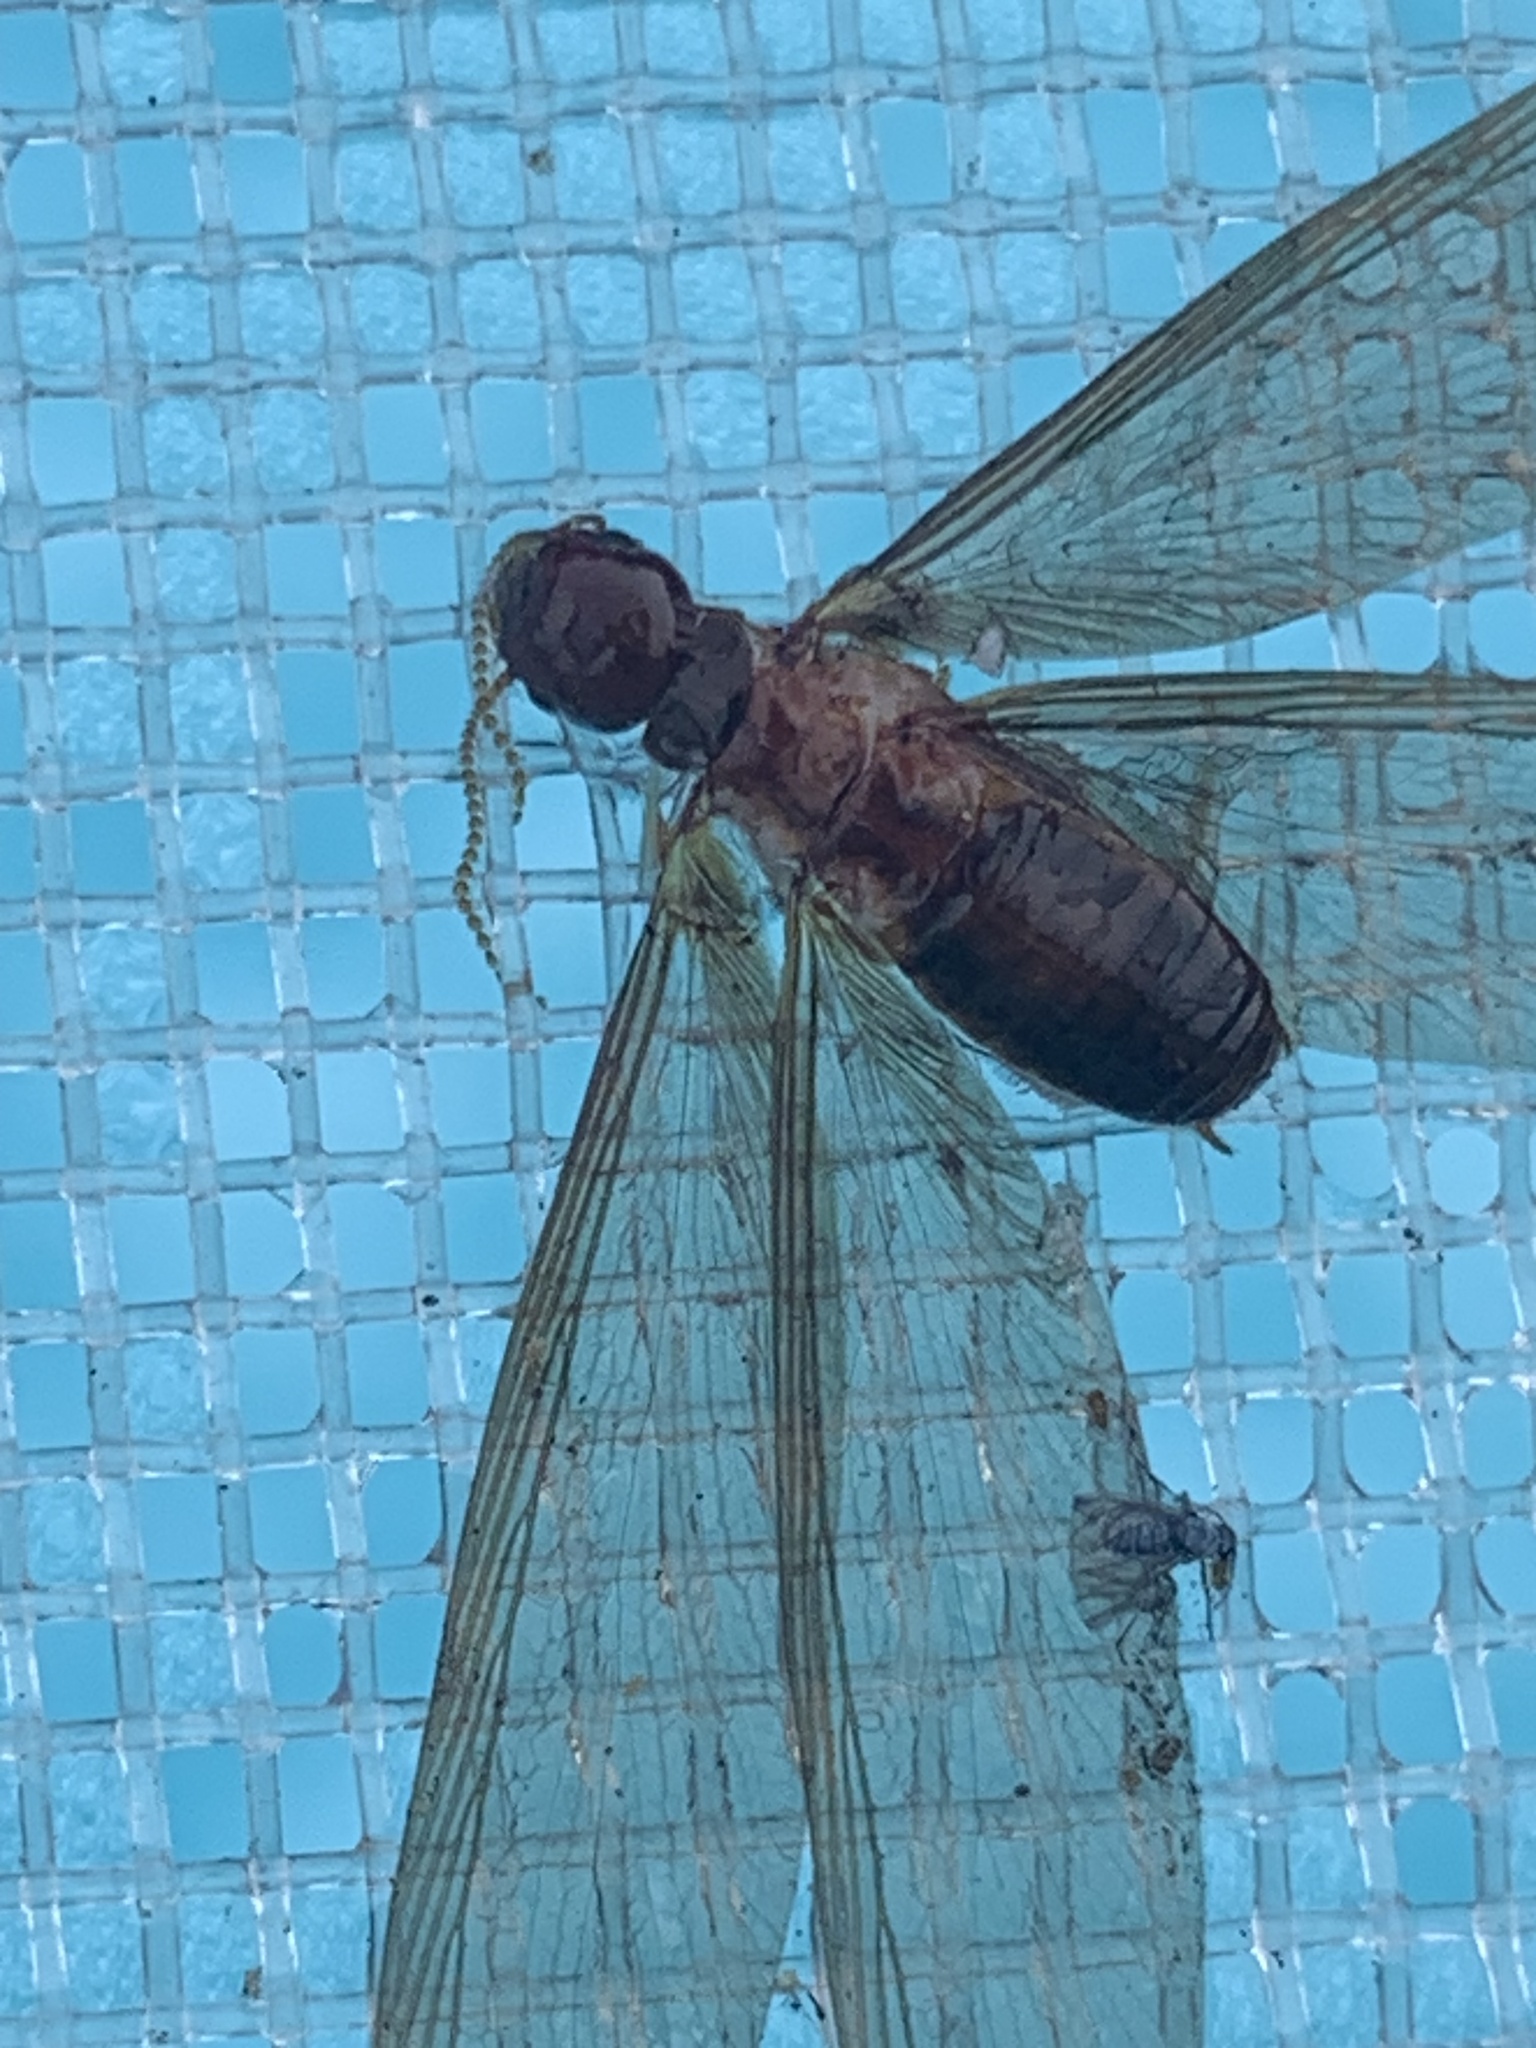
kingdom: Animalia
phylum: Arthropoda
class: Insecta
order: Blattodea
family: Archotermopsidae
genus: Zootermopsis
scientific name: Zootermopsis nevadensis
